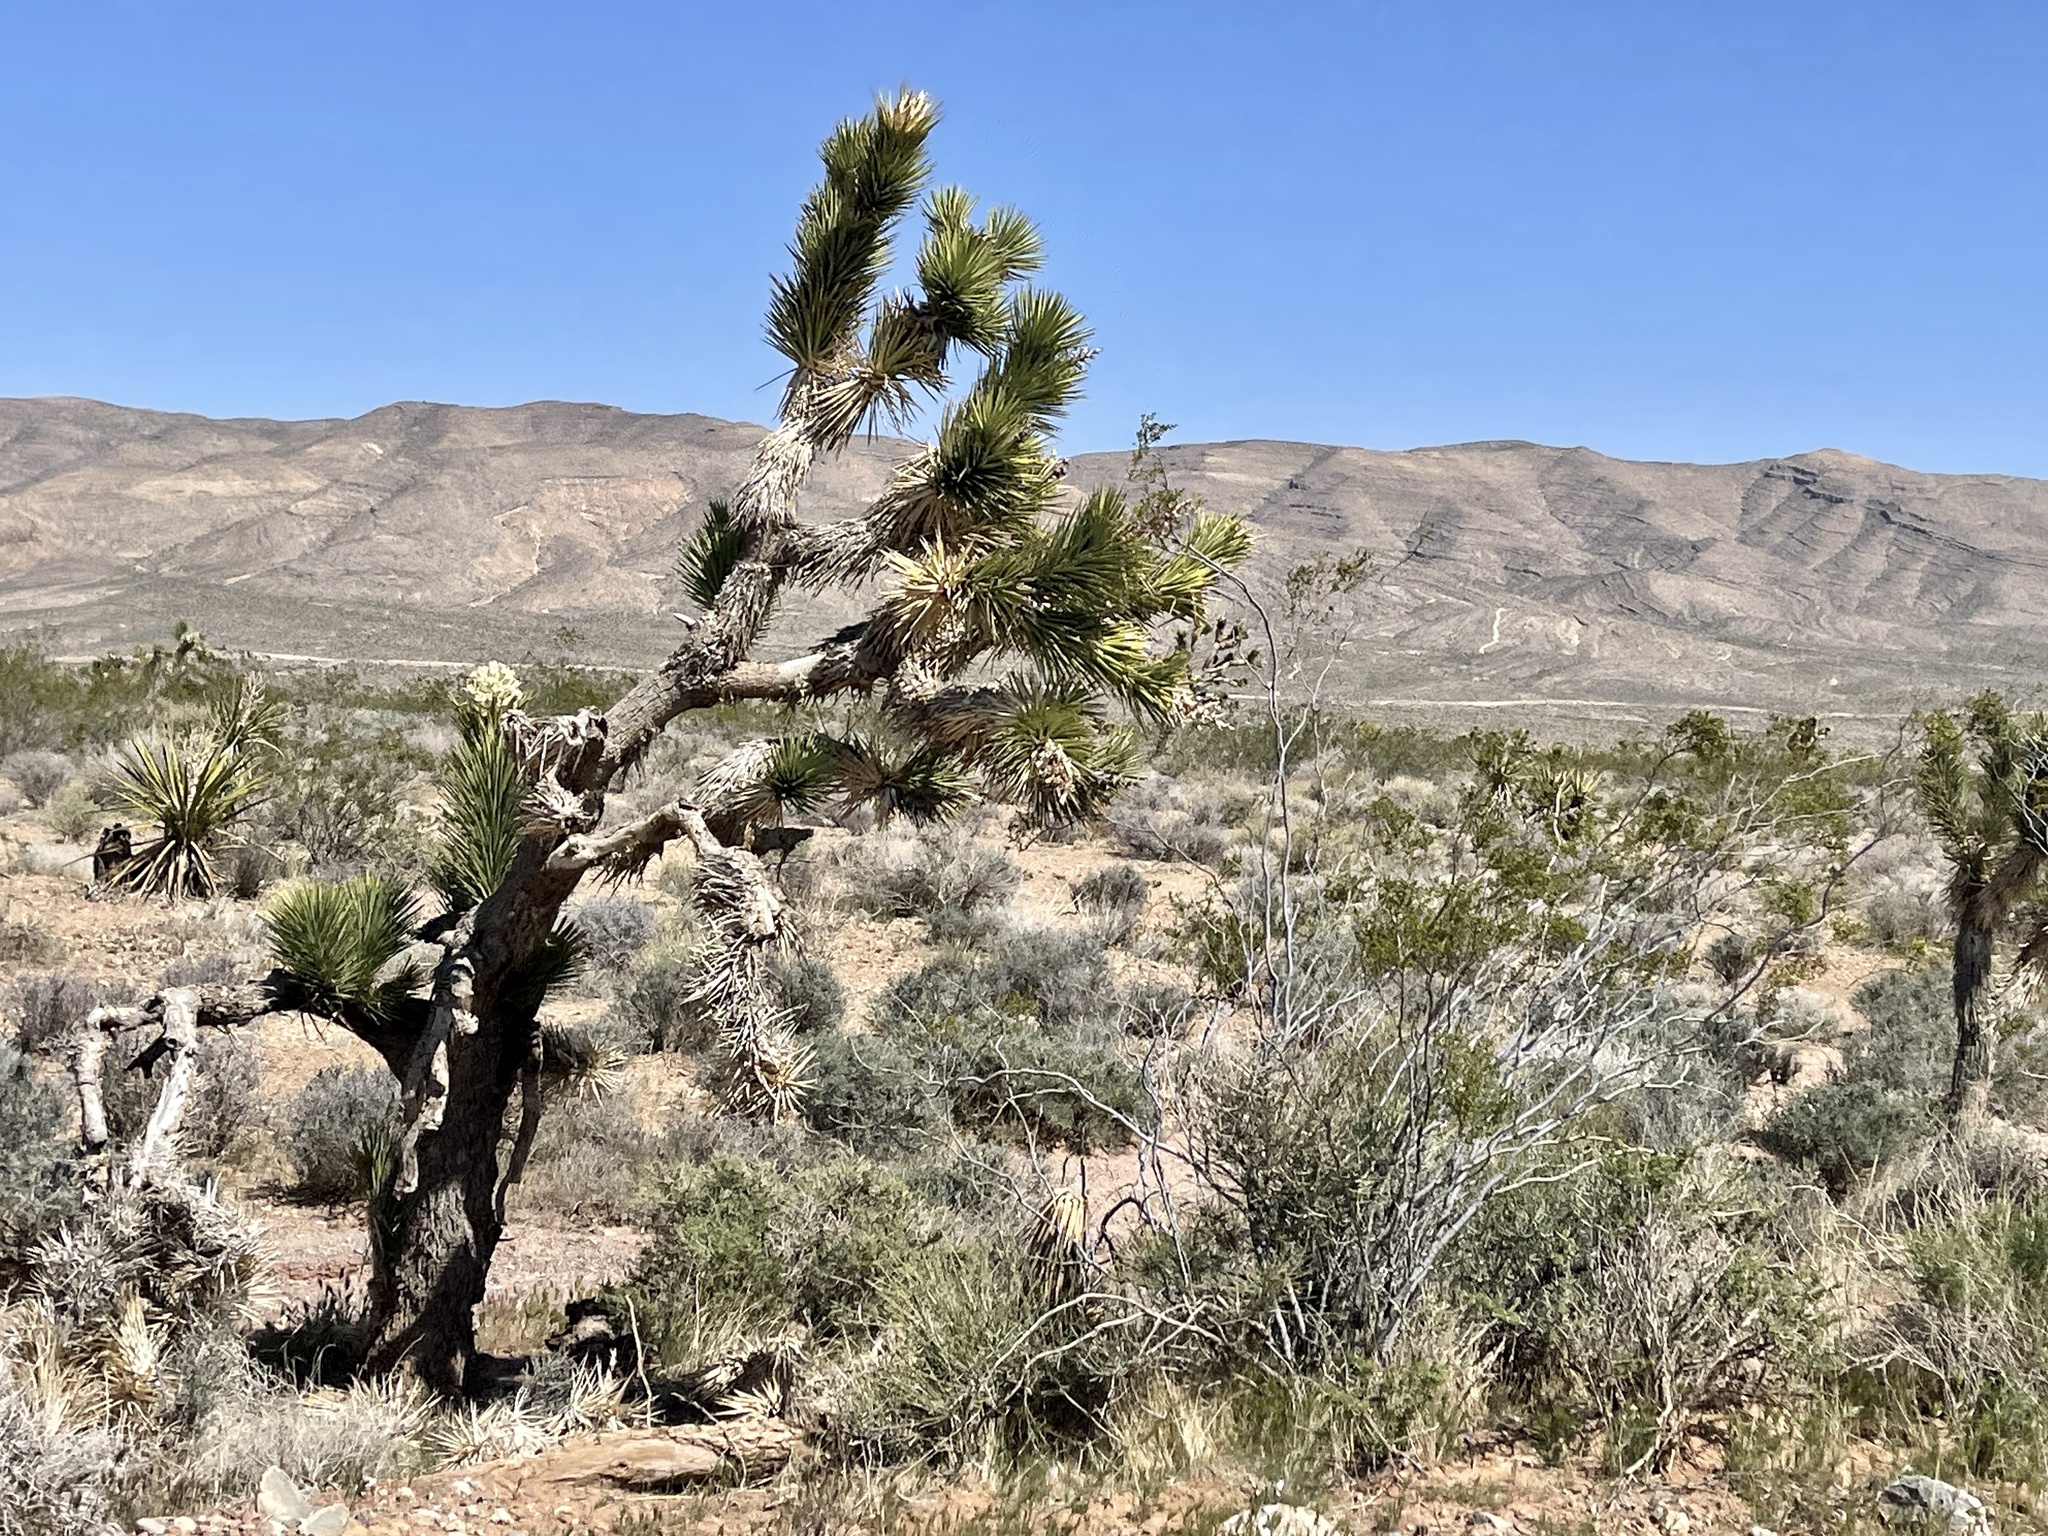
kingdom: Plantae
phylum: Tracheophyta
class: Liliopsida
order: Asparagales
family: Asparagaceae
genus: Yucca
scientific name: Yucca brevifolia
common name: Joshua tree
